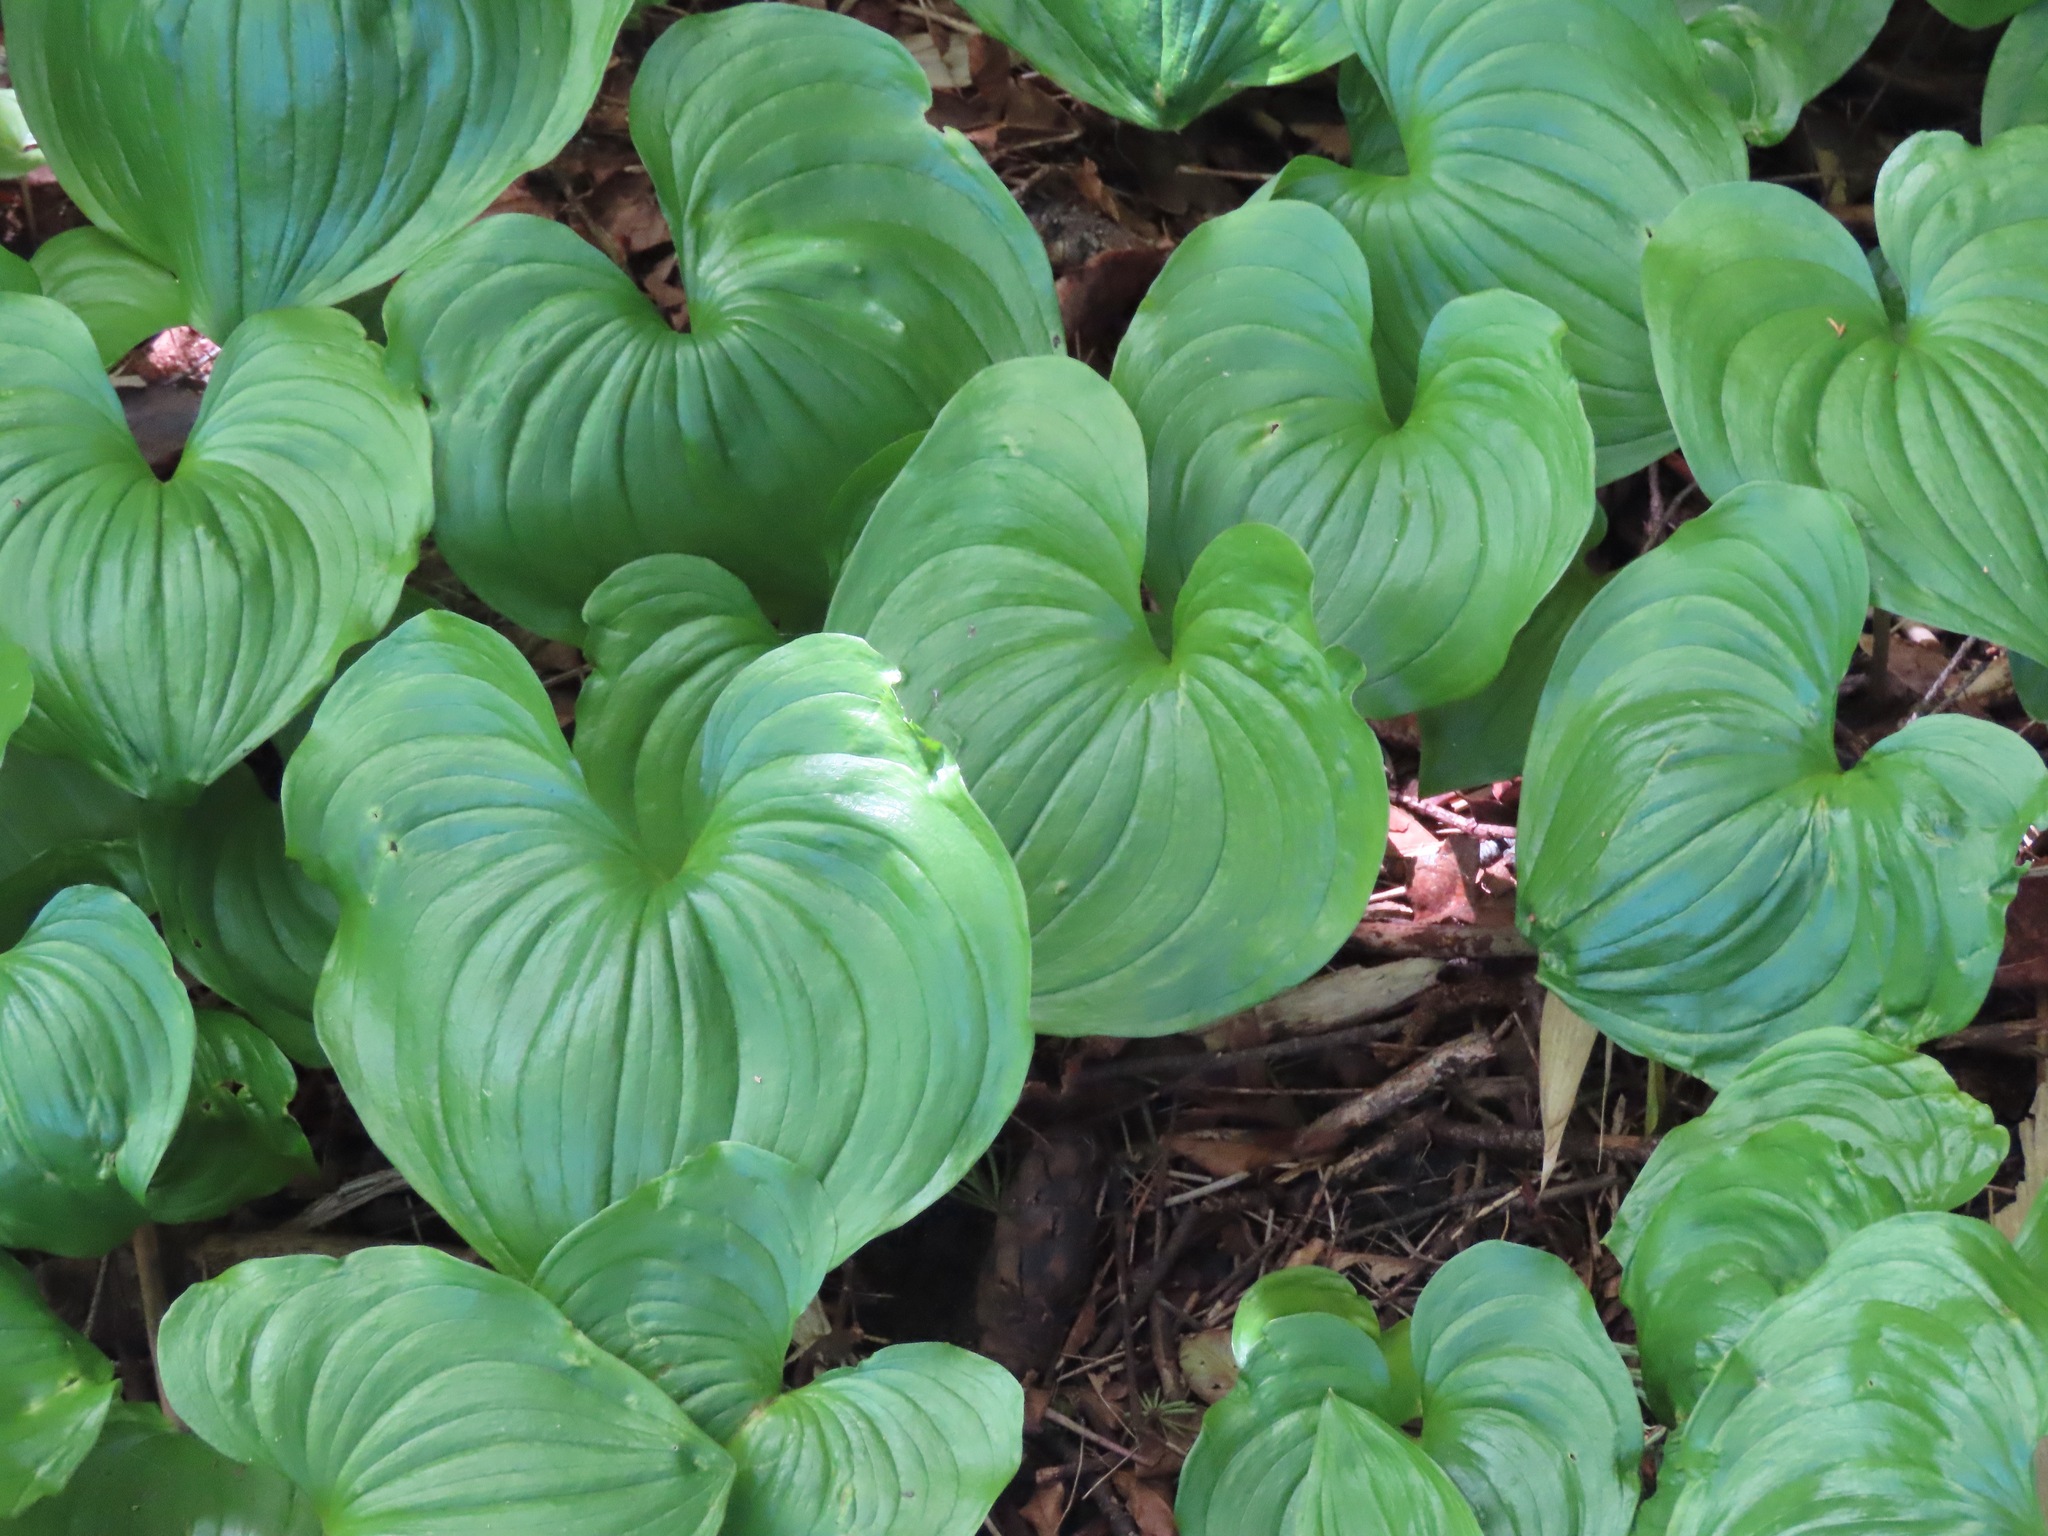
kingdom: Plantae
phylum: Tracheophyta
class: Liliopsida
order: Asparagales
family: Asparagaceae
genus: Maianthemum
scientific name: Maianthemum dilatatum
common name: False lily-of-the-valley
